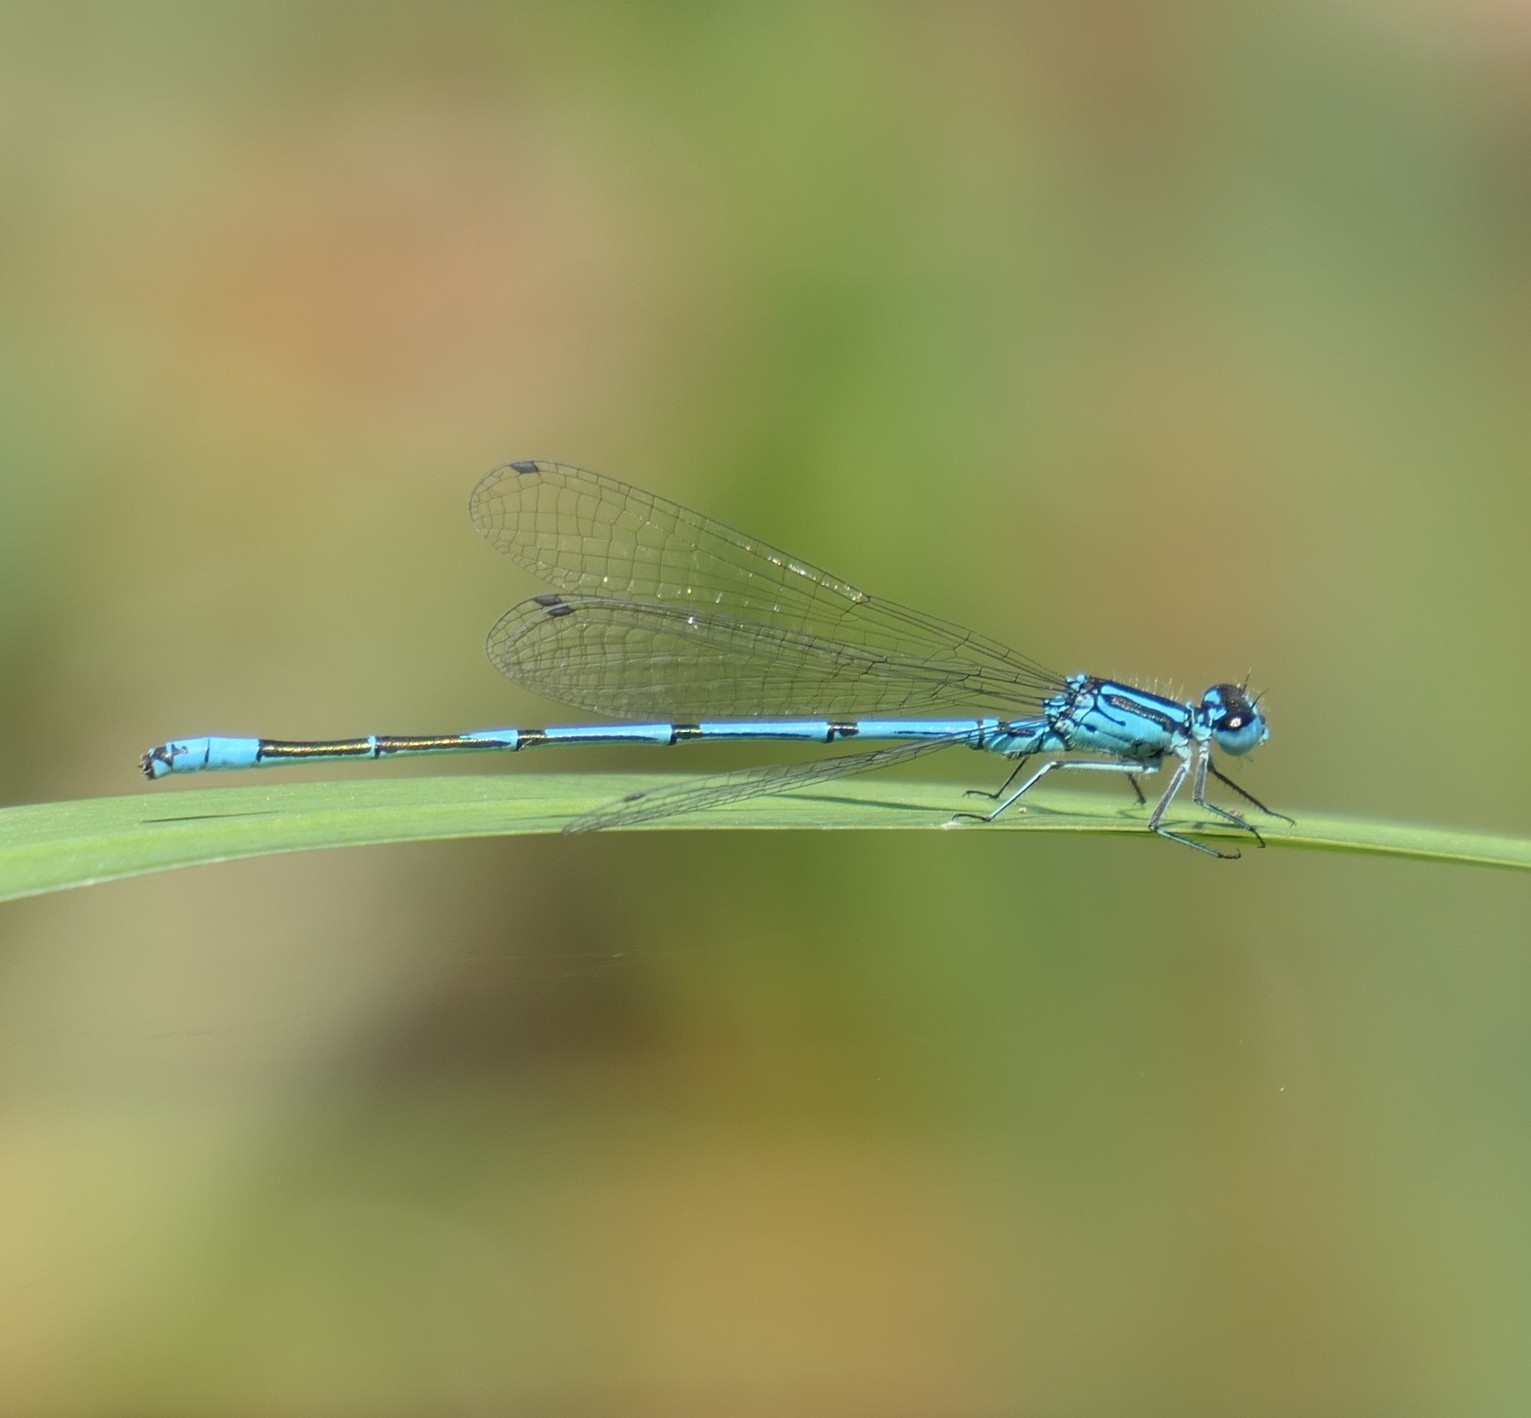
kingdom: Animalia
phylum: Arthropoda
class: Insecta
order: Odonata
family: Coenagrionidae
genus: Coenagrion
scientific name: Coenagrion puella
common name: Azure damselfly
